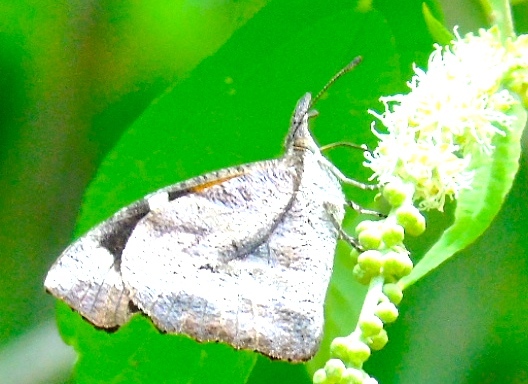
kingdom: Animalia
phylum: Arthropoda
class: Insecta
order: Lepidoptera
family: Nymphalidae
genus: Libytheana
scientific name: Libytheana carinenta
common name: American snout
